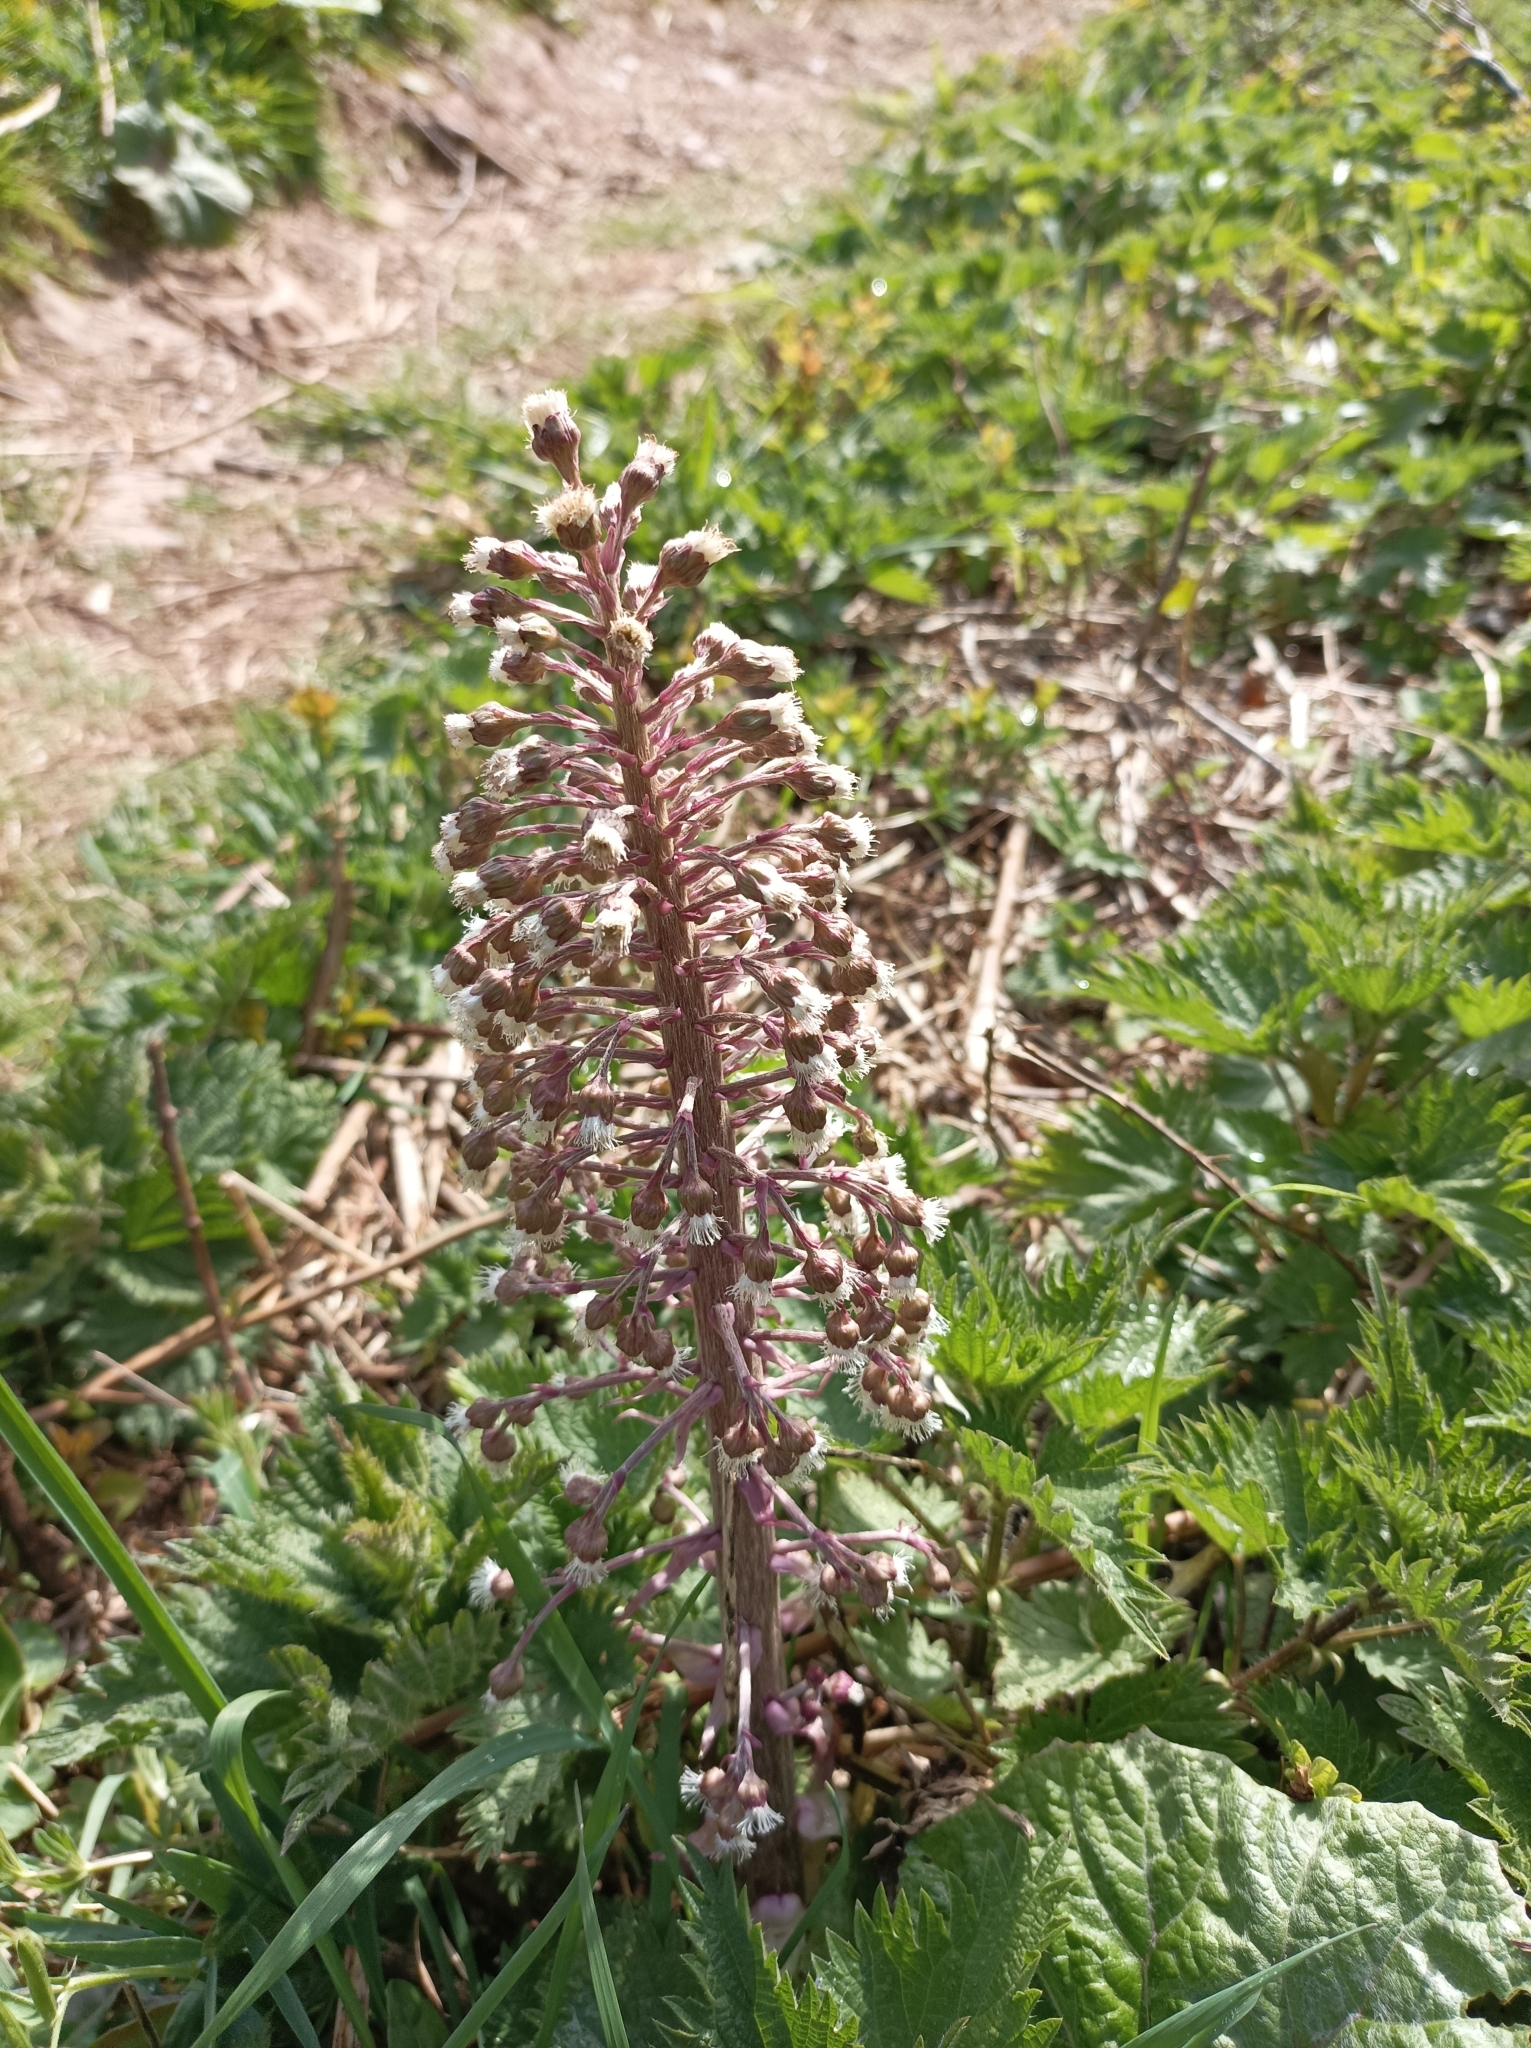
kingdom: Plantae
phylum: Tracheophyta
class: Magnoliopsida
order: Asterales
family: Asteraceae
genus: Petasites
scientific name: Petasites hybridus
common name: Butterbur
